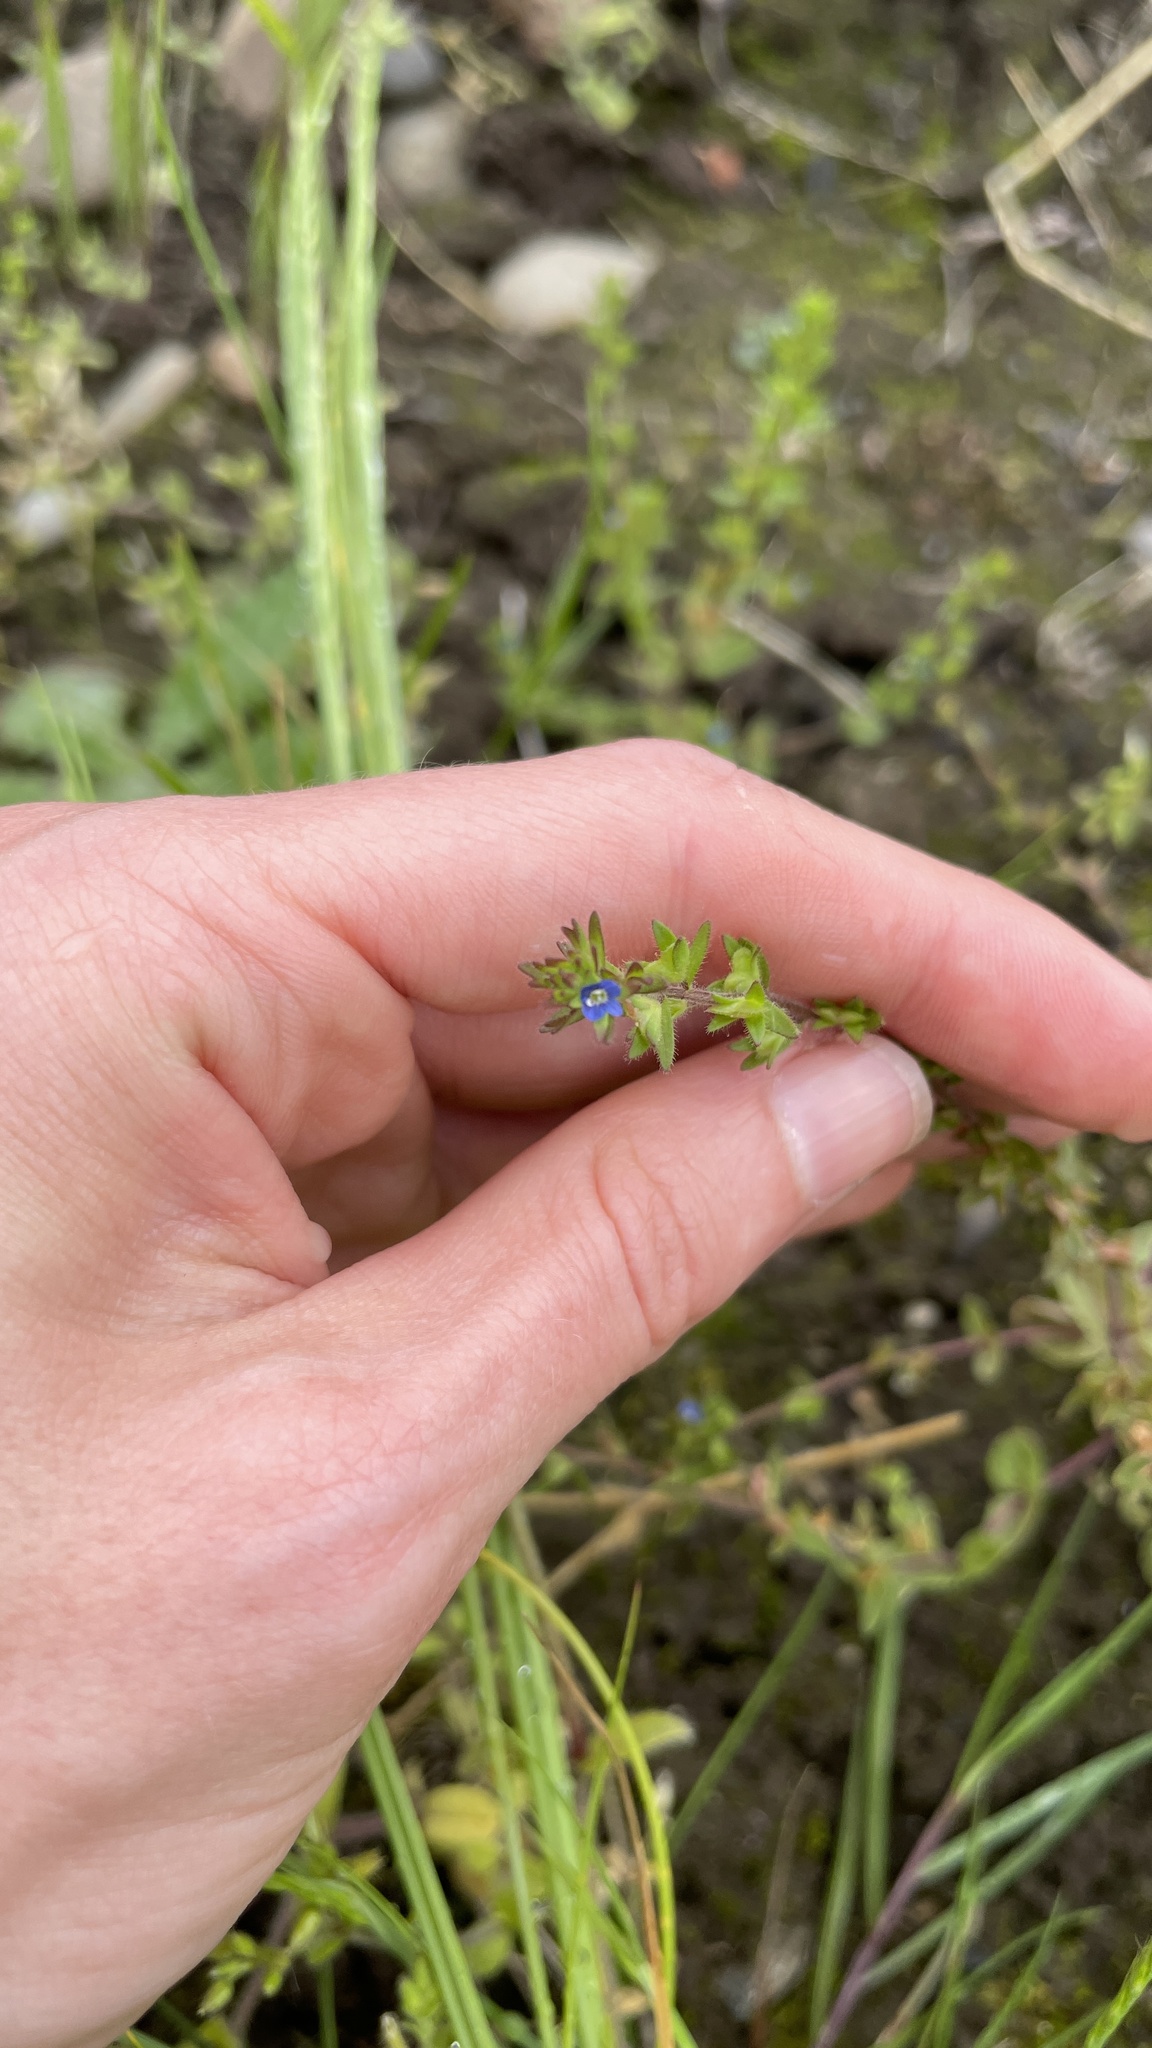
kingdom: Plantae
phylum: Tracheophyta
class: Magnoliopsida
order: Lamiales
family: Plantaginaceae
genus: Veronica
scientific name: Veronica arvensis
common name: Corn speedwell
